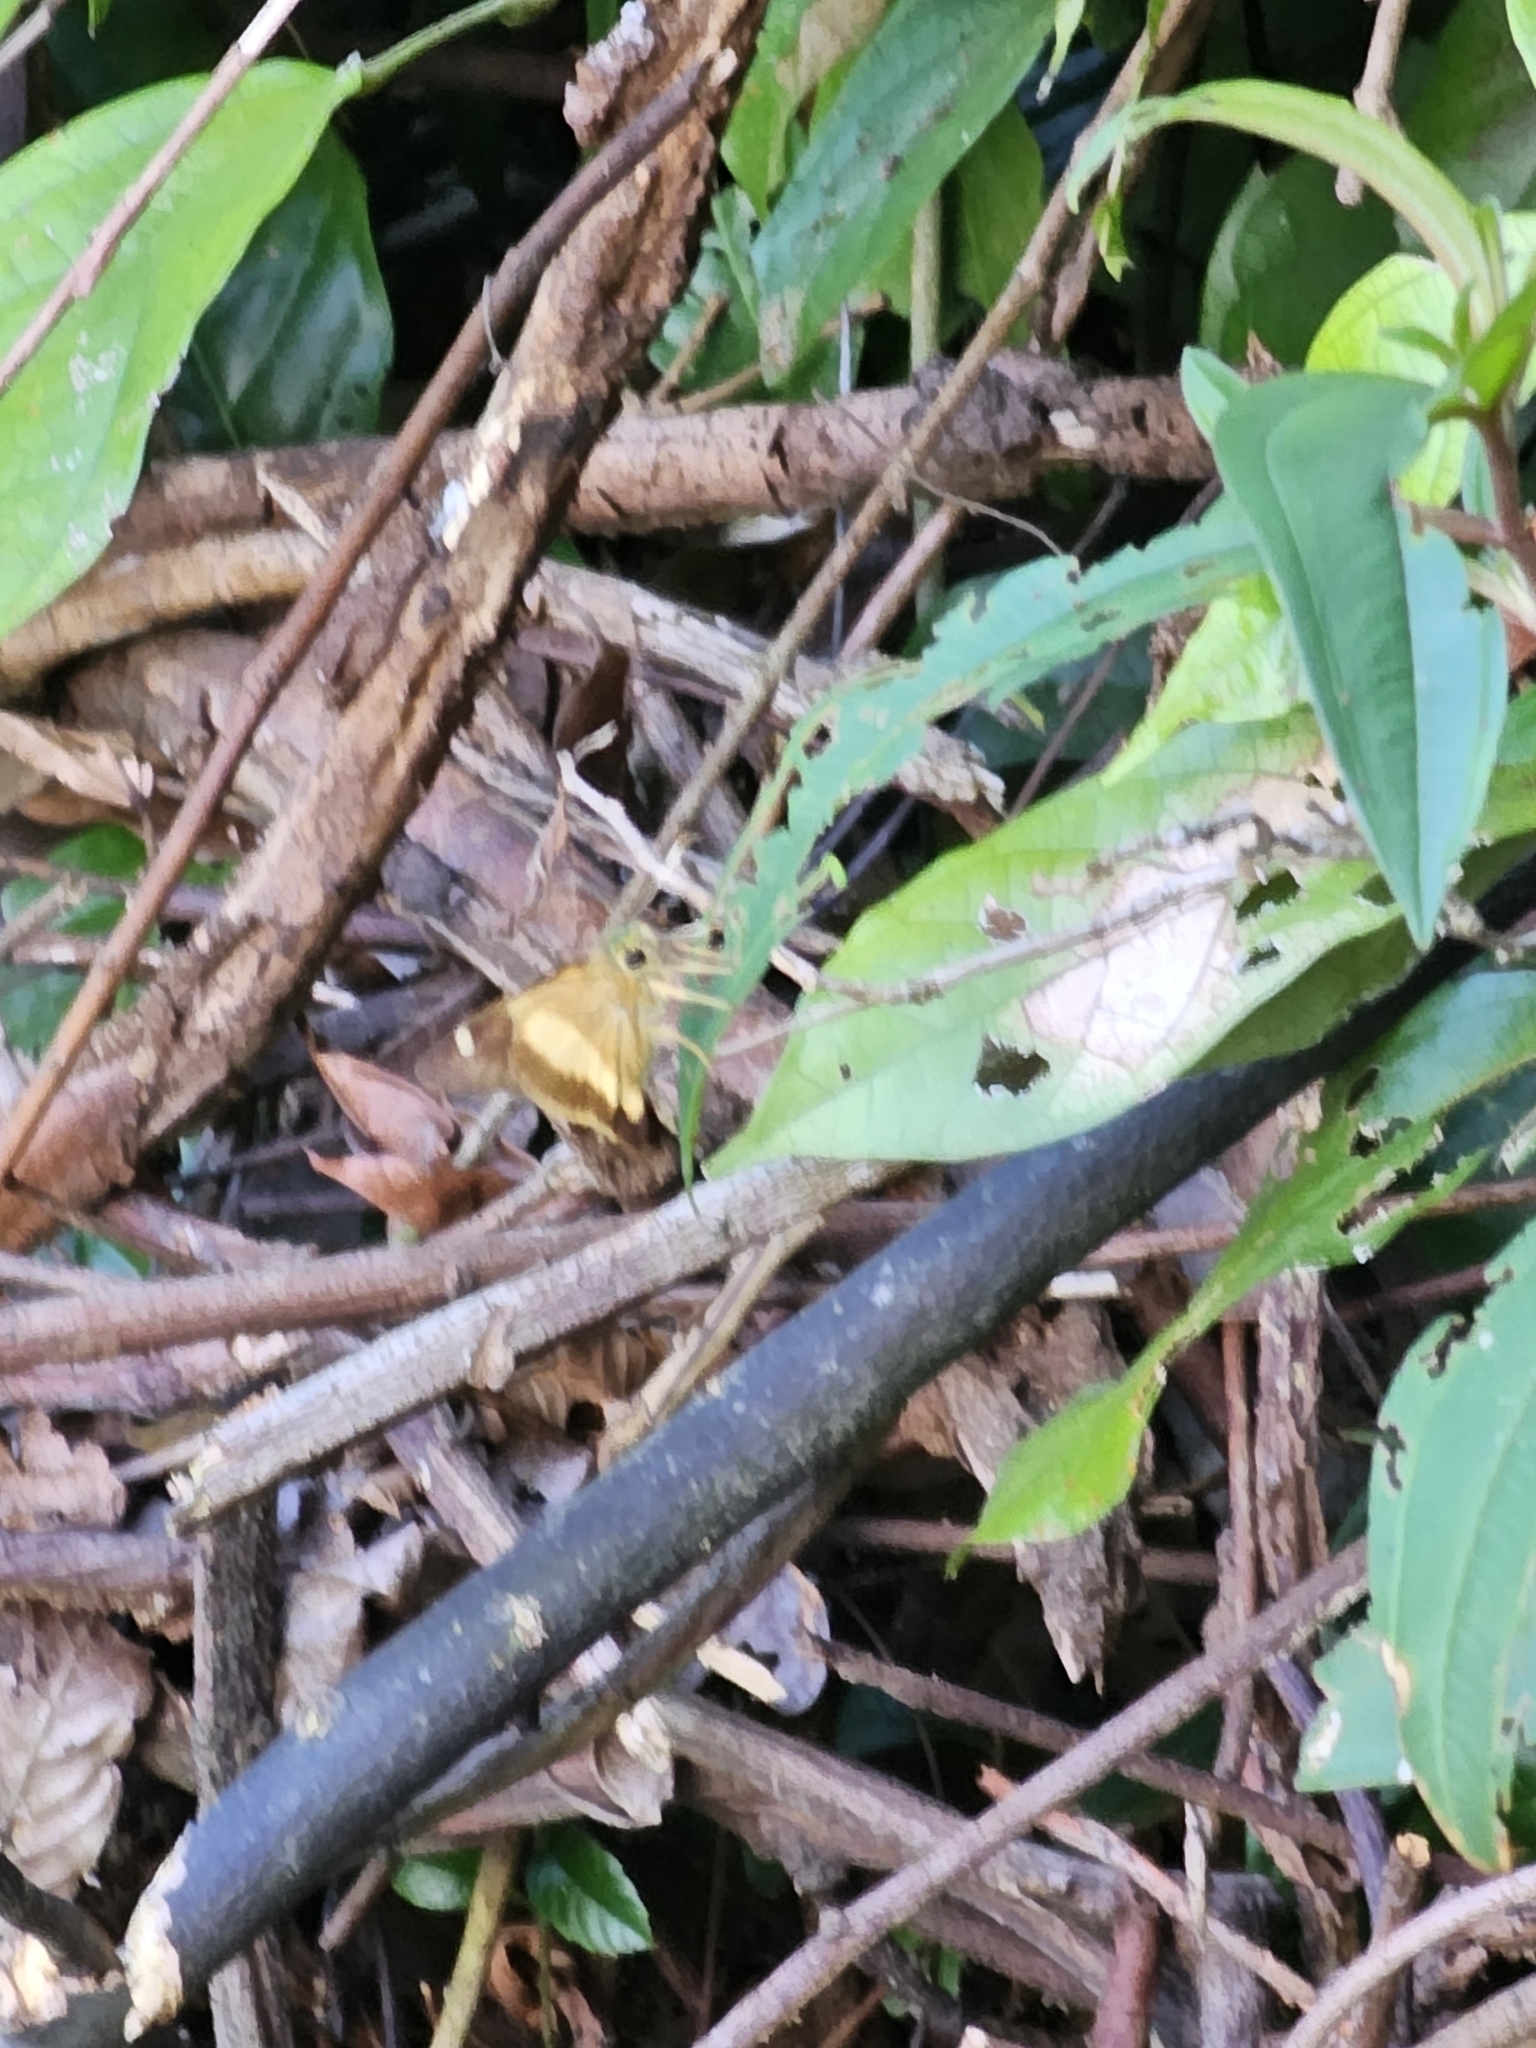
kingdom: Animalia
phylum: Arthropoda
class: Insecta
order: Lepidoptera
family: Hesperiidae
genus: Hasora
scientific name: Hasora schoenherr
